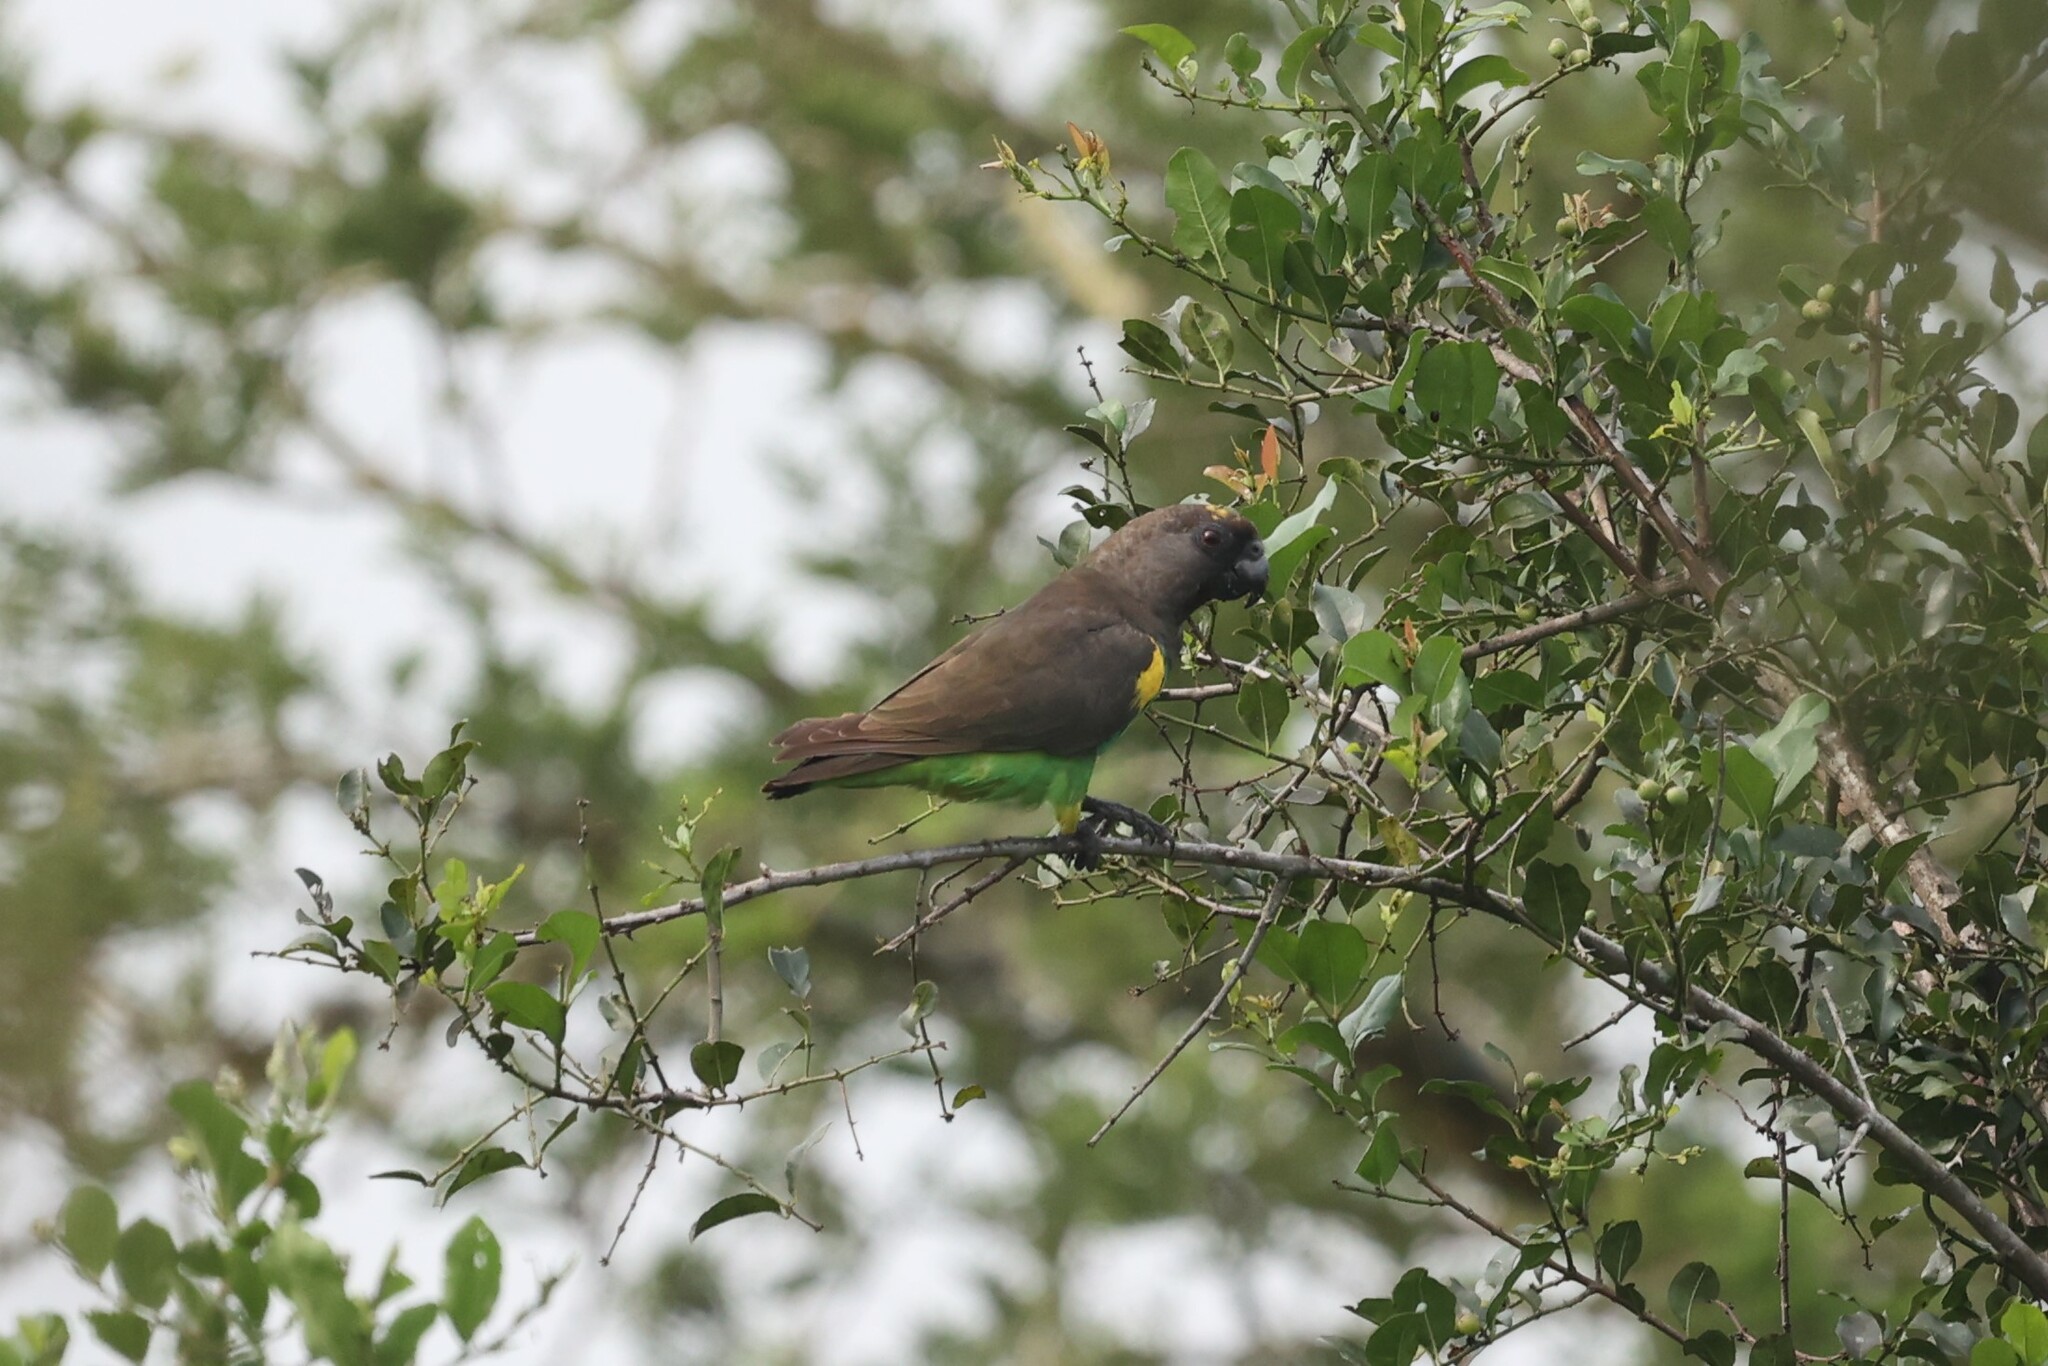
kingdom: Animalia
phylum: Chordata
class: Aves
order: Psittaciformes
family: Psittacidae
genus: Poicephalus
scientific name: Poicephalus meyeri
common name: Meyer's parrot
